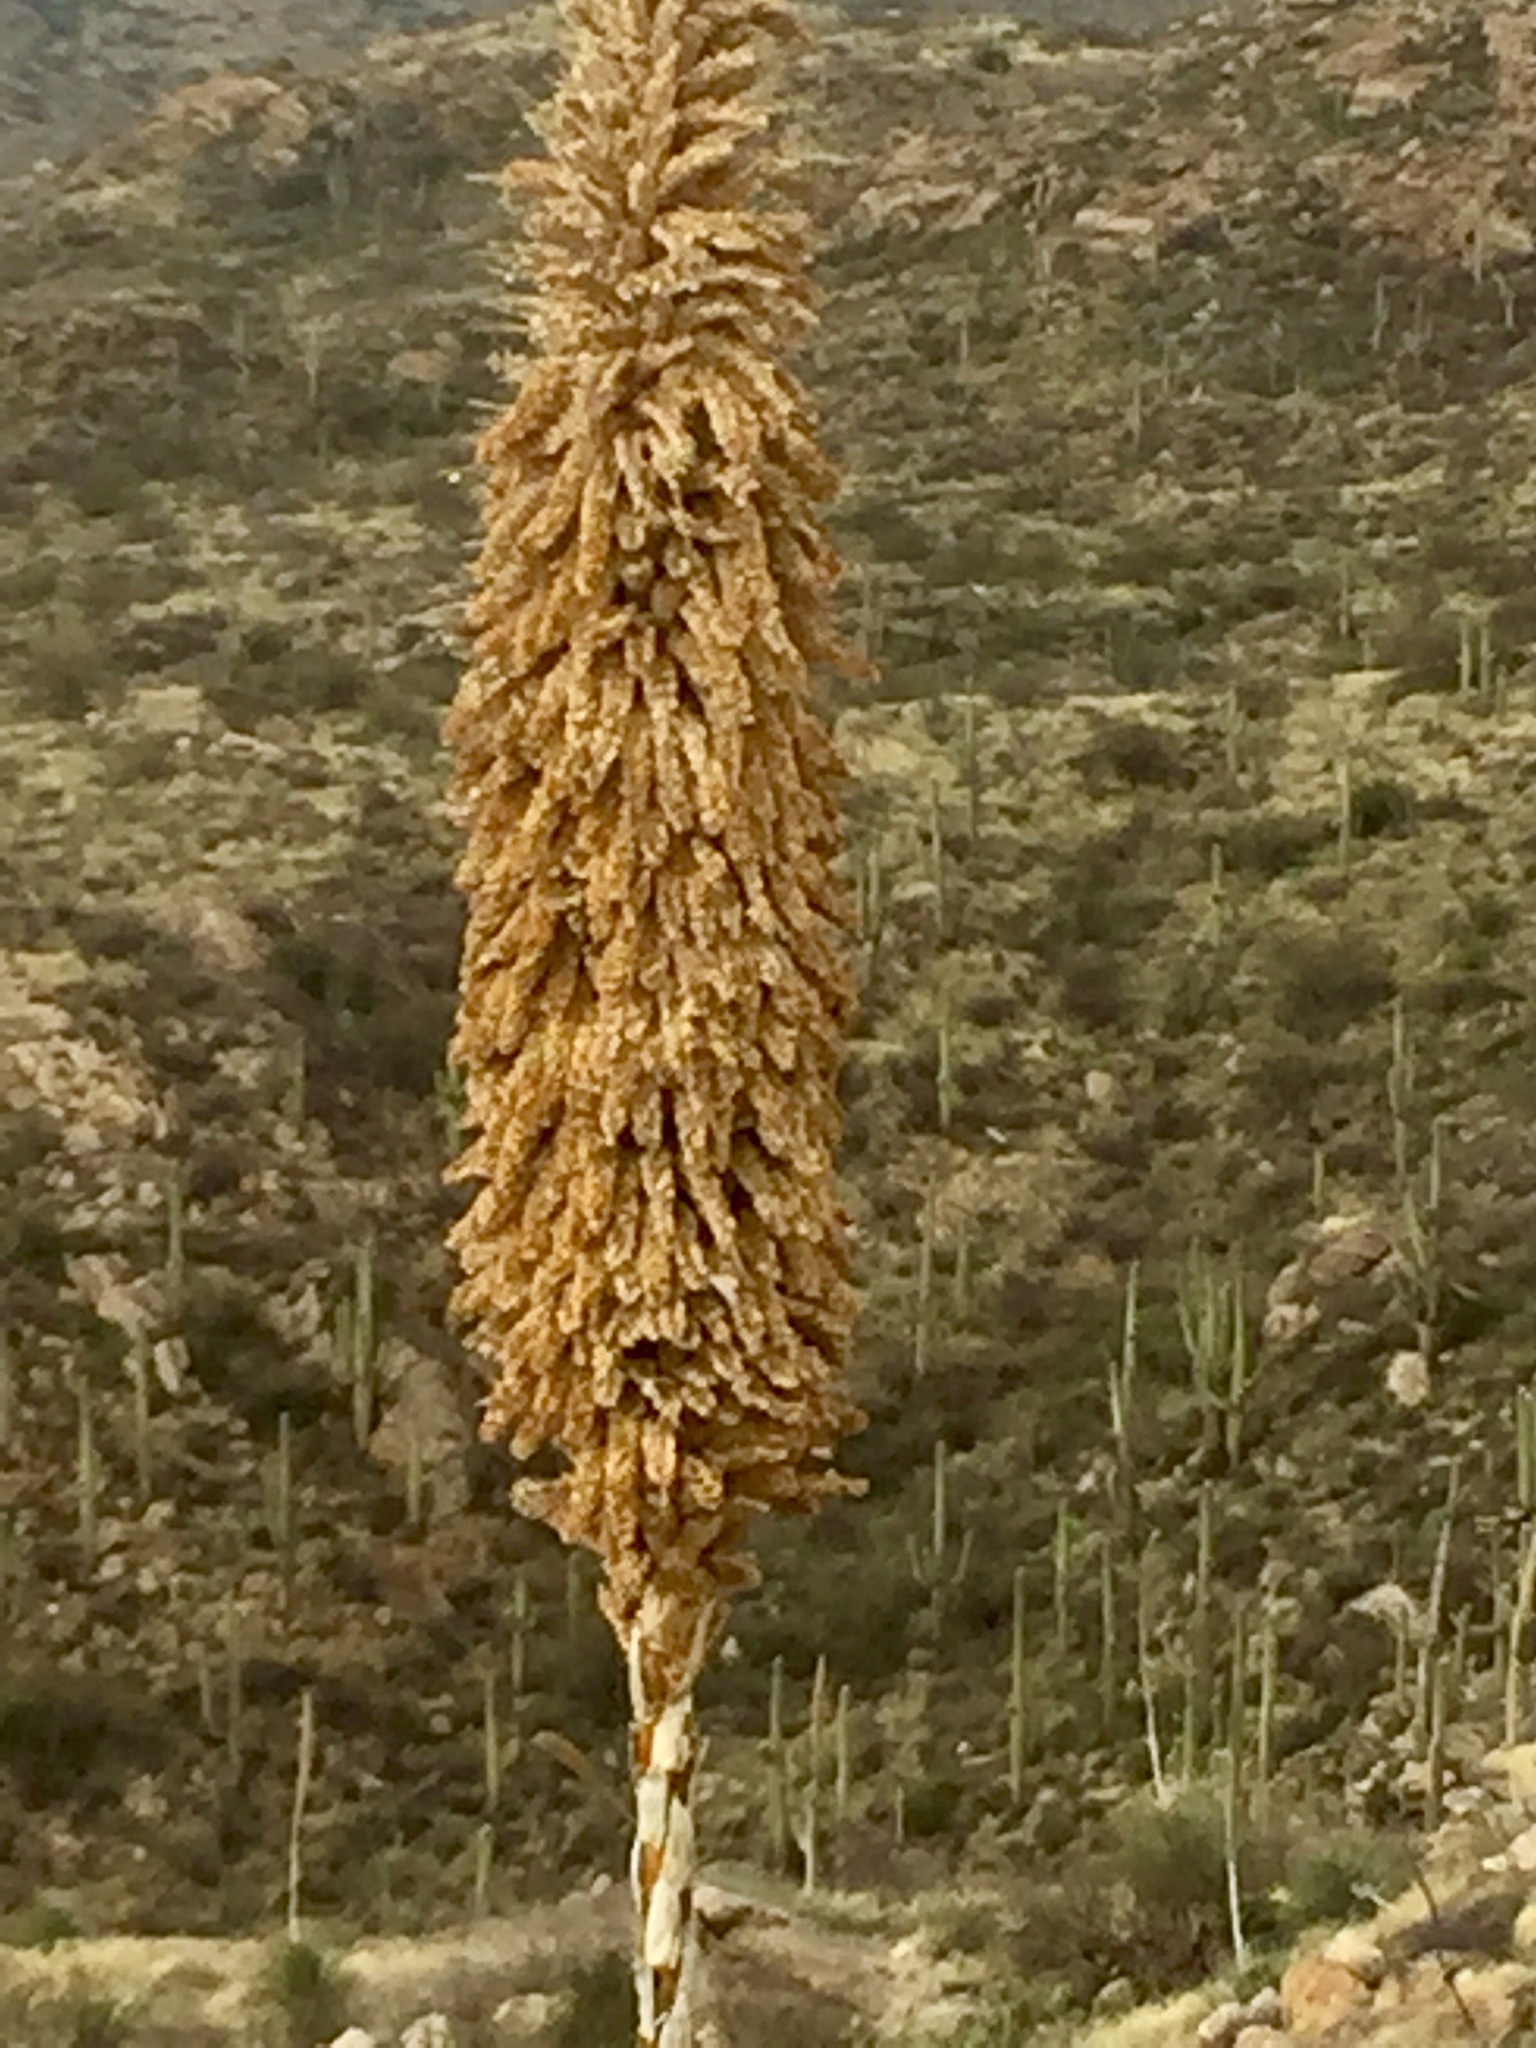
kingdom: Plantae
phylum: Tracheophyta
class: Liliopsida
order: Asparagales
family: Asparagaceae
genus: Dasylirion
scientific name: Dasylirion wheeleri
